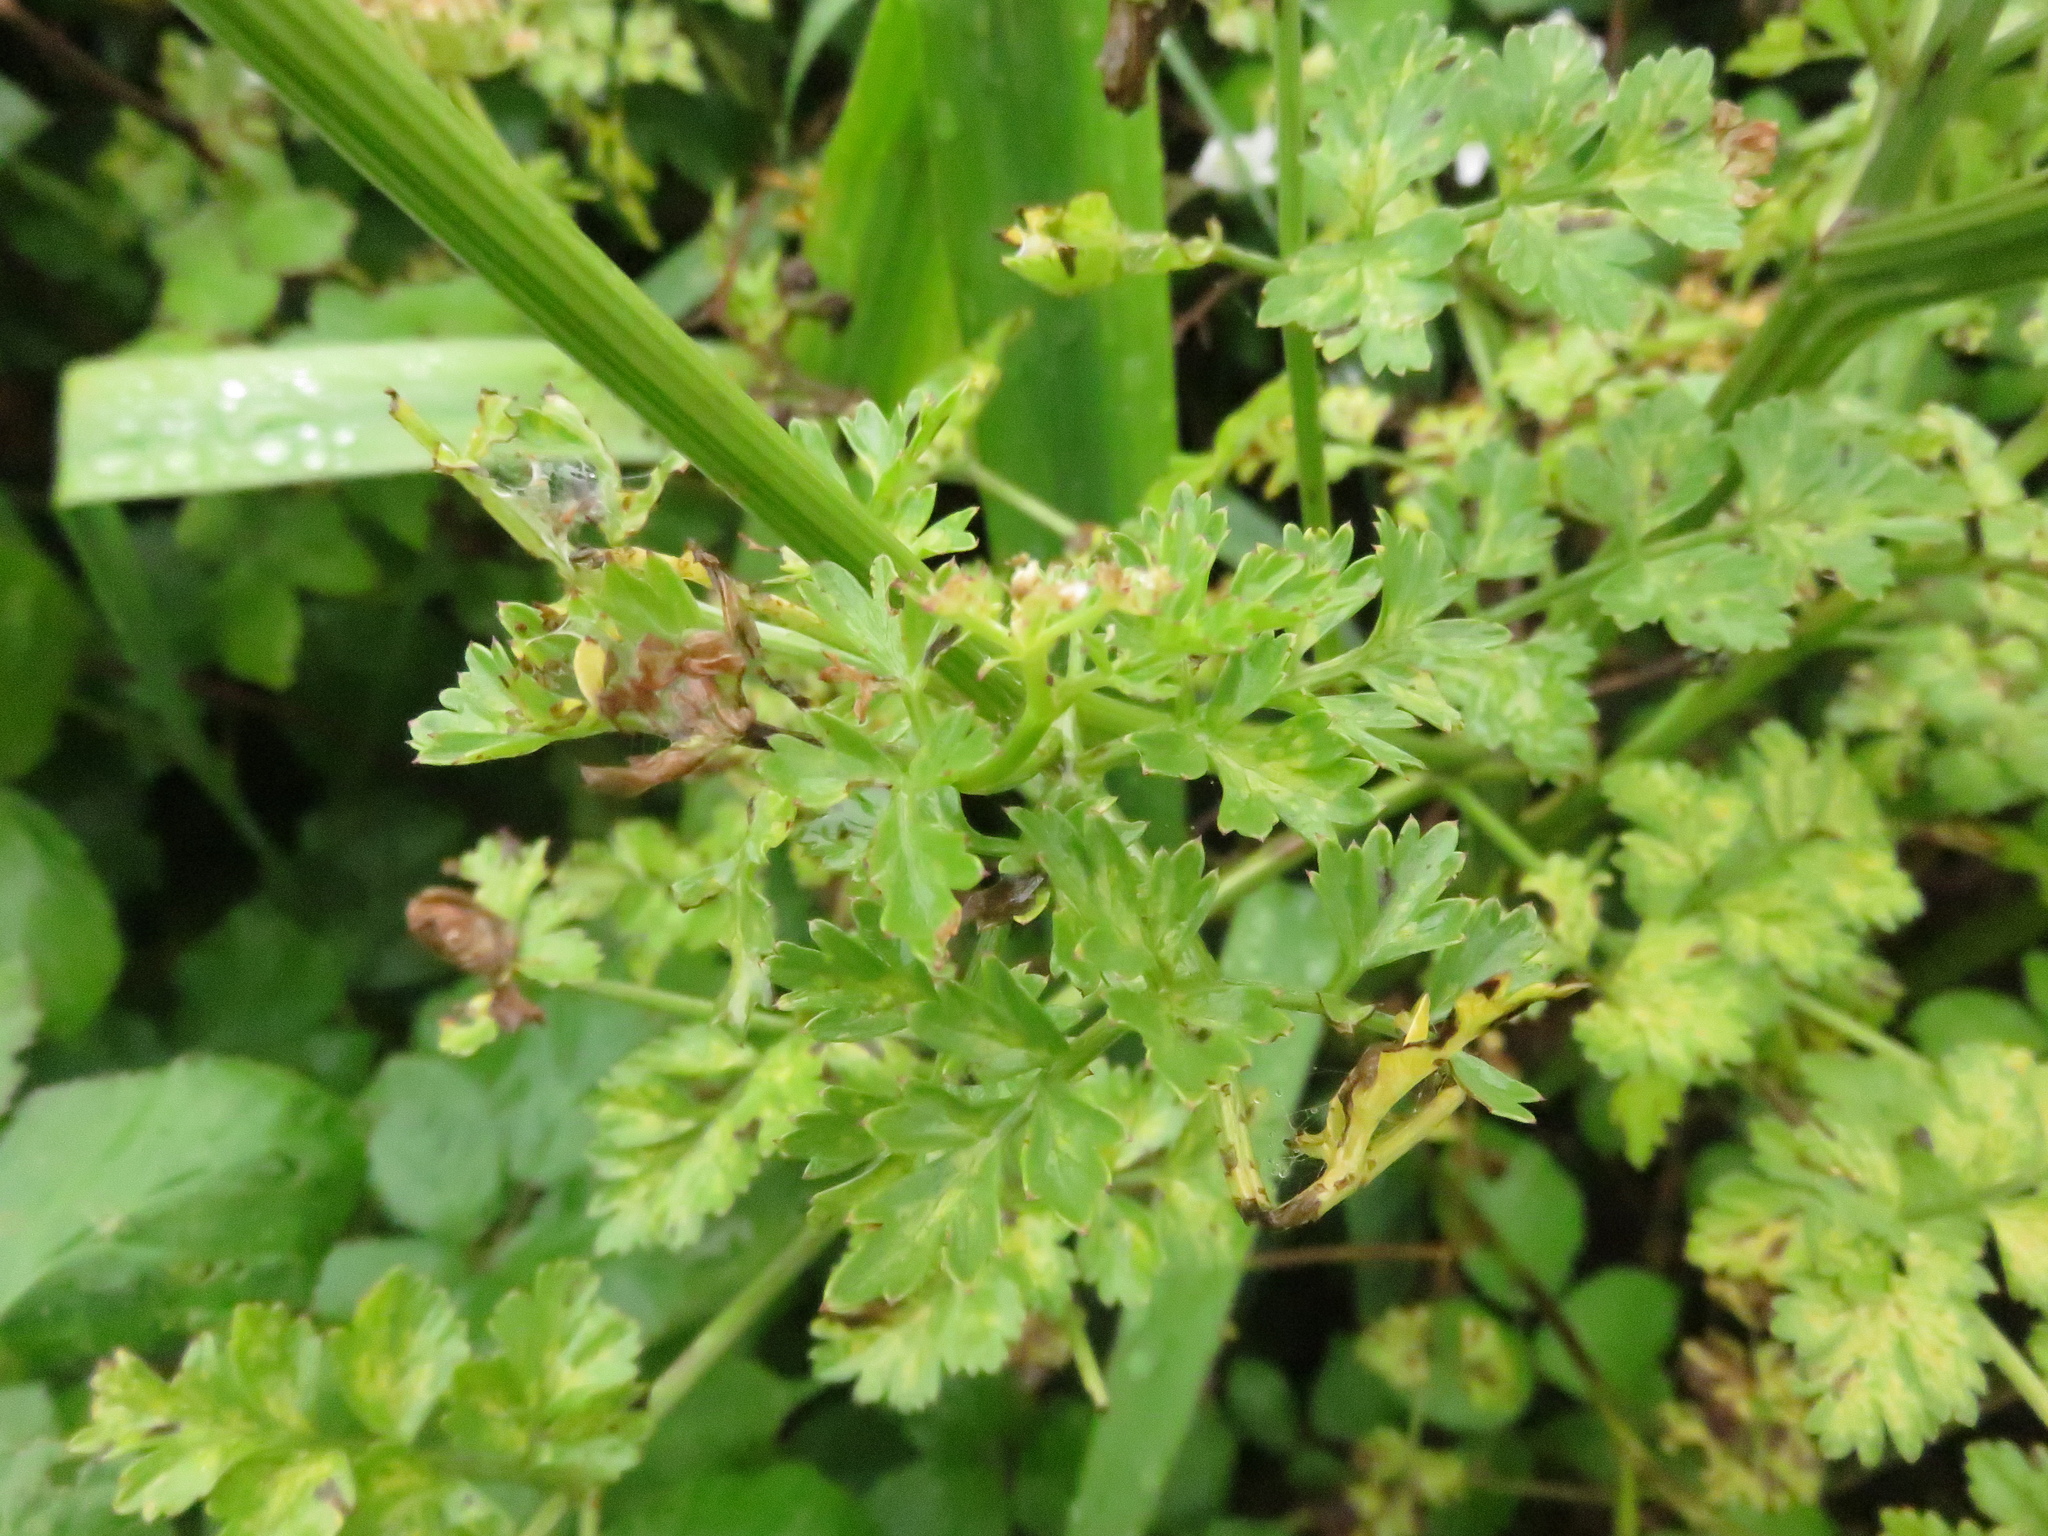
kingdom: Plantae
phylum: Tracheophyta
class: Magnoliopsida
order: Apiales
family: Apiaceae
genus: Oenanthe
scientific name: Oenanthe crocata
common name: Hemlock water-dropwort
